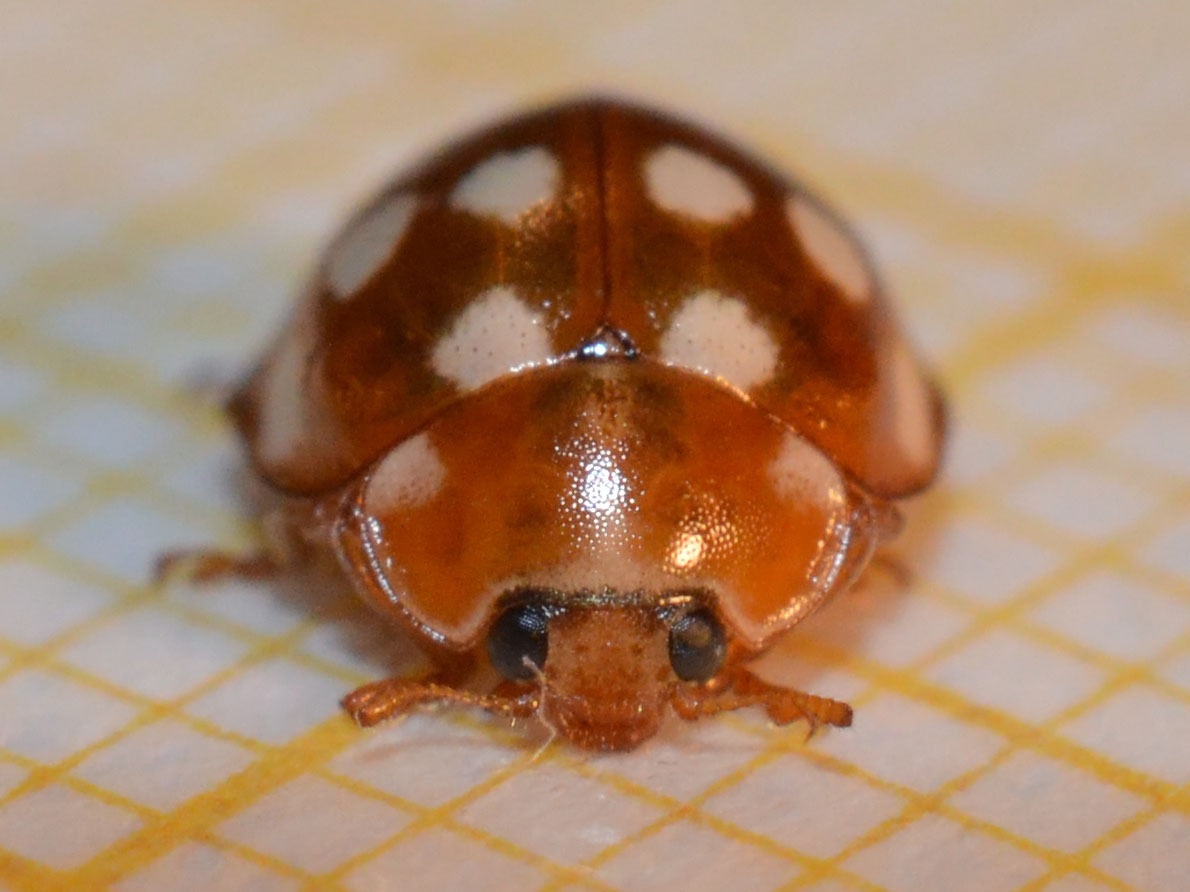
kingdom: Animalia
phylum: Arthropoda
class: Insecta
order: Coleoptera
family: Coccinellidae
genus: Calvia
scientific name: Calvia quatuordecimguttata
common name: Cream-spot ladybird
